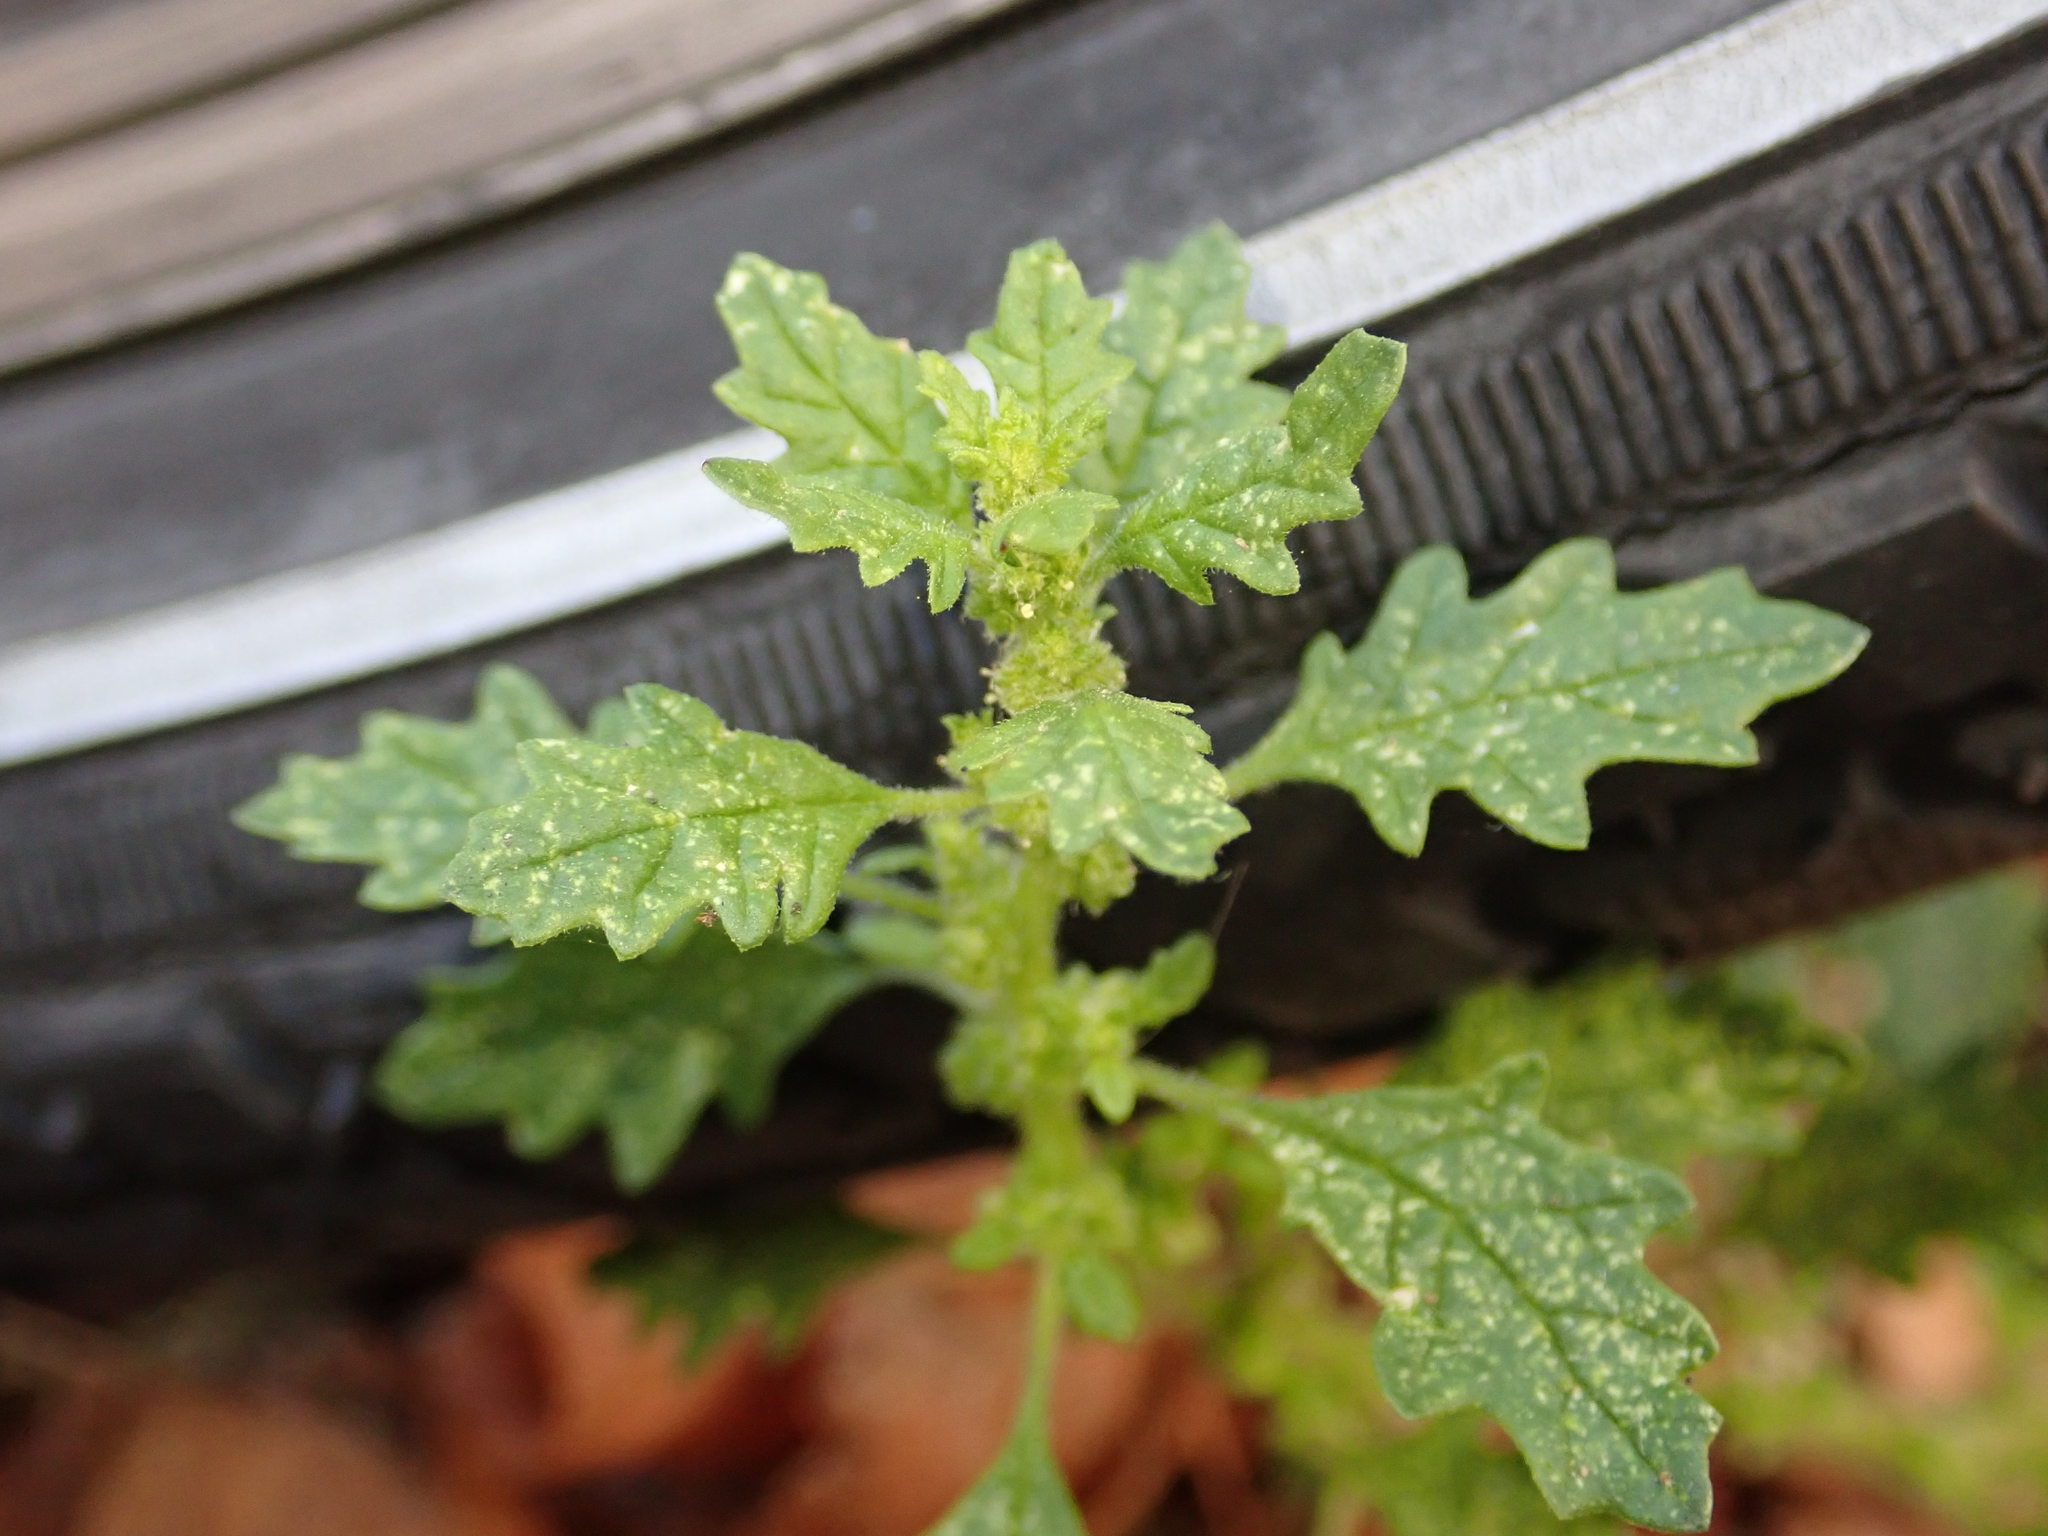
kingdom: Plantae
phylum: Tracheophyta
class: Magnoliopsida
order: Caryophyllales
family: Amaranthaceae
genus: Dysphania
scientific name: Dysphania pumilio
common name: Clammy goosefoot
